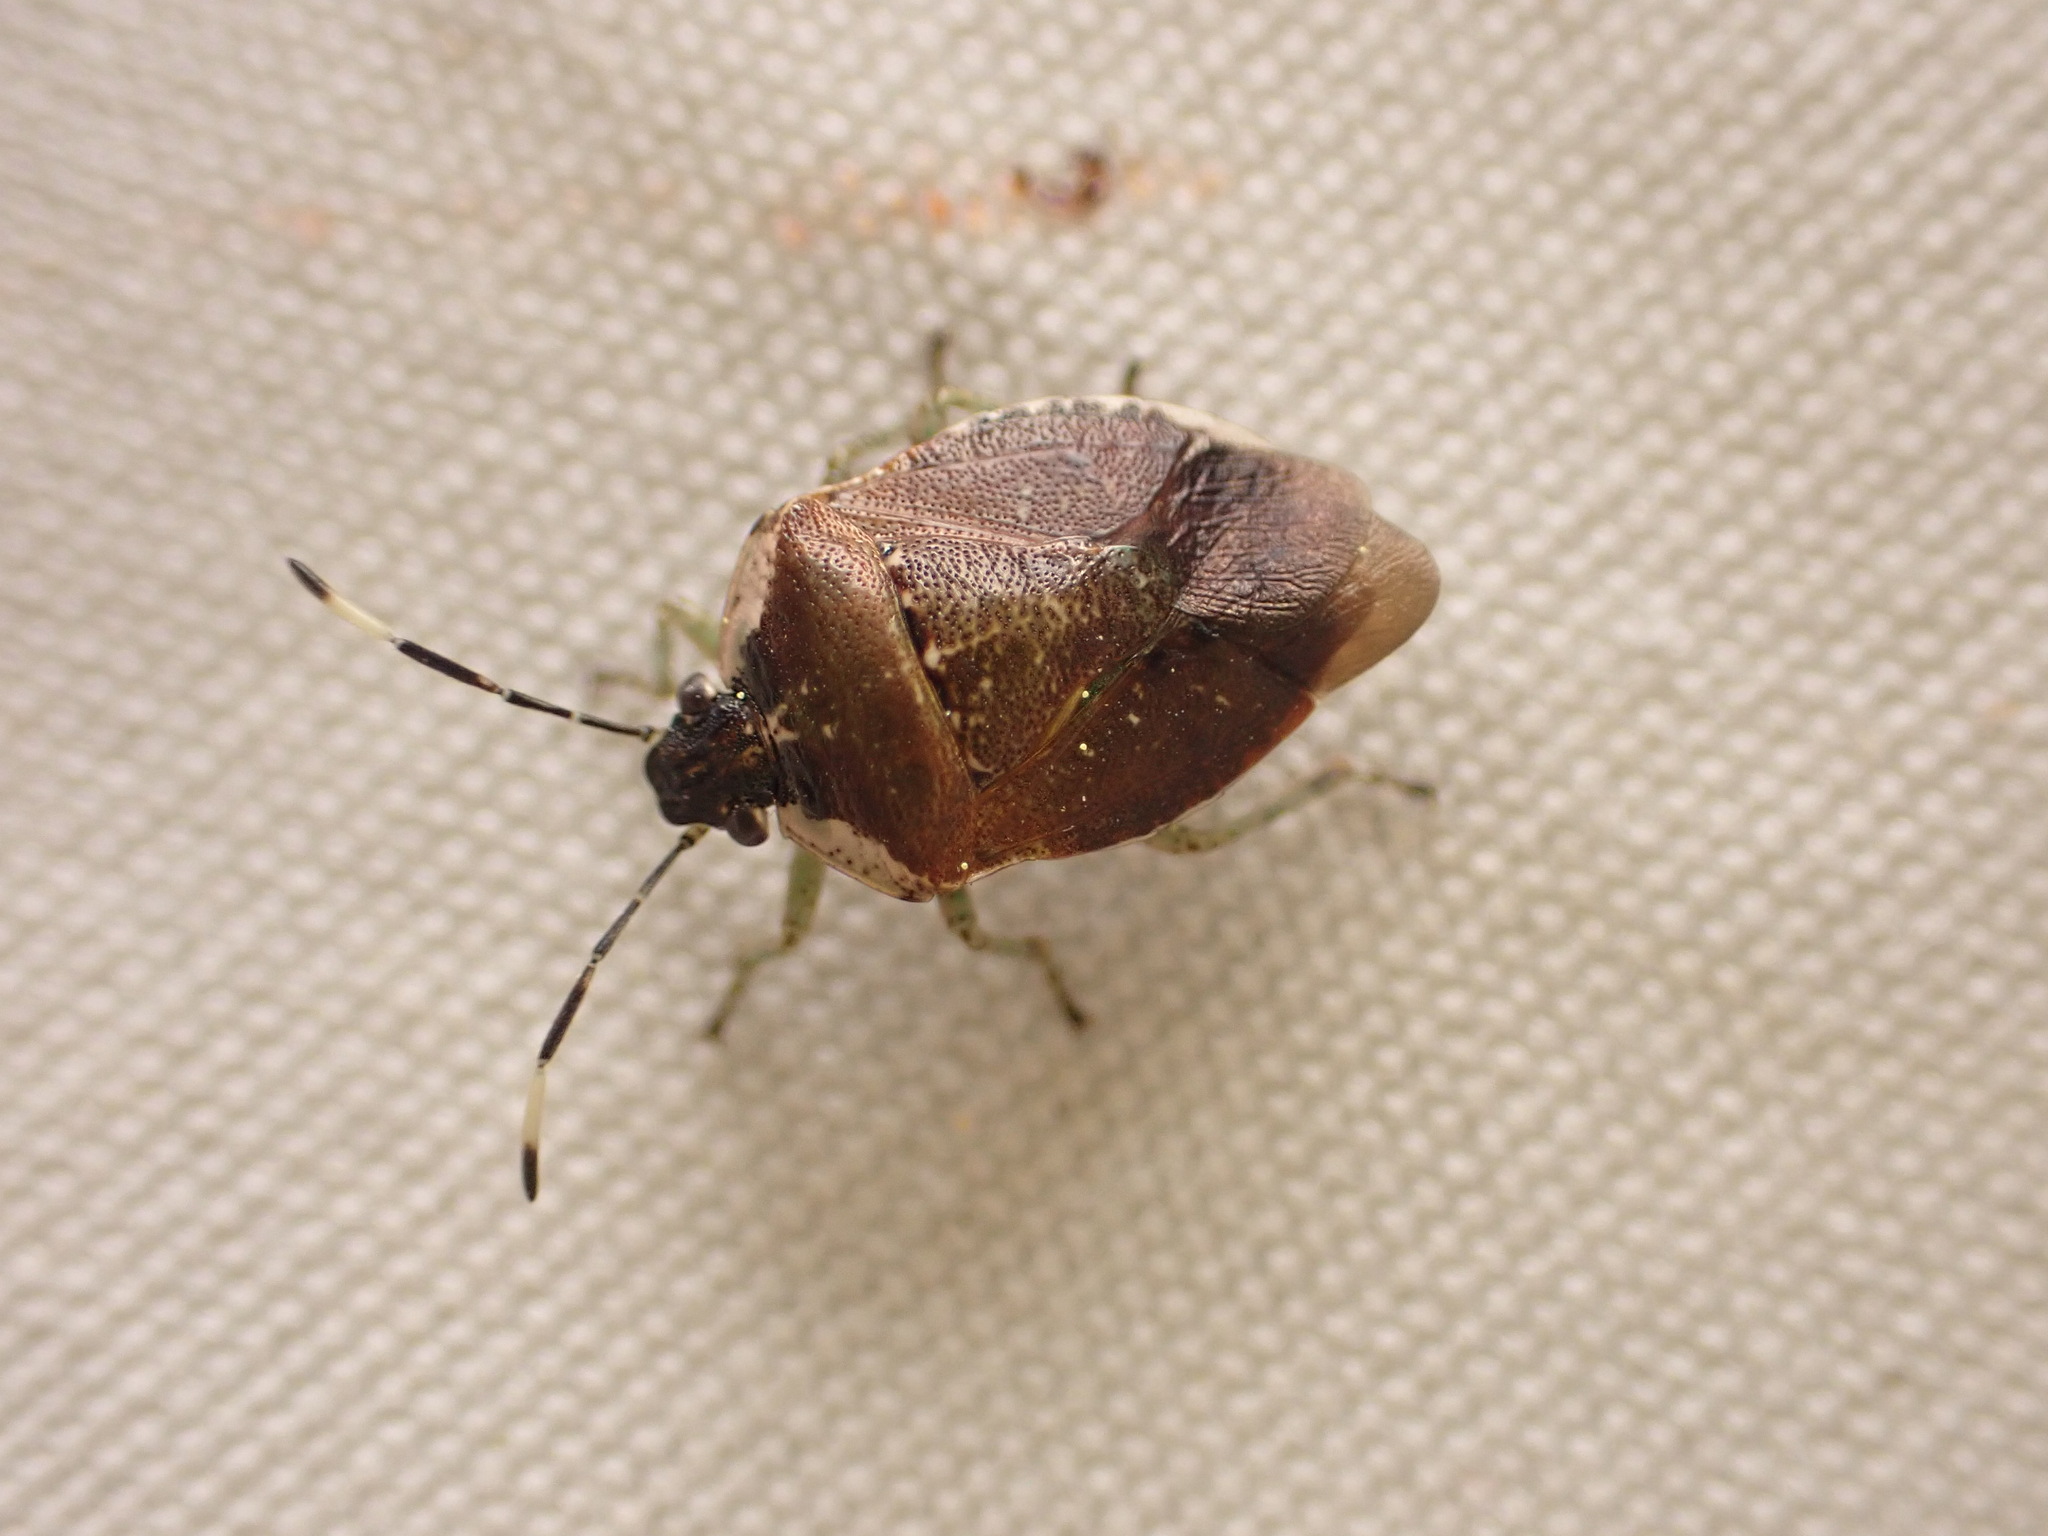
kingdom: Animalia
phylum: Arthropoda
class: Insecta
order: Hemiptera
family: Pentatomidae
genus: Monteithiella
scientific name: Monteithiella
